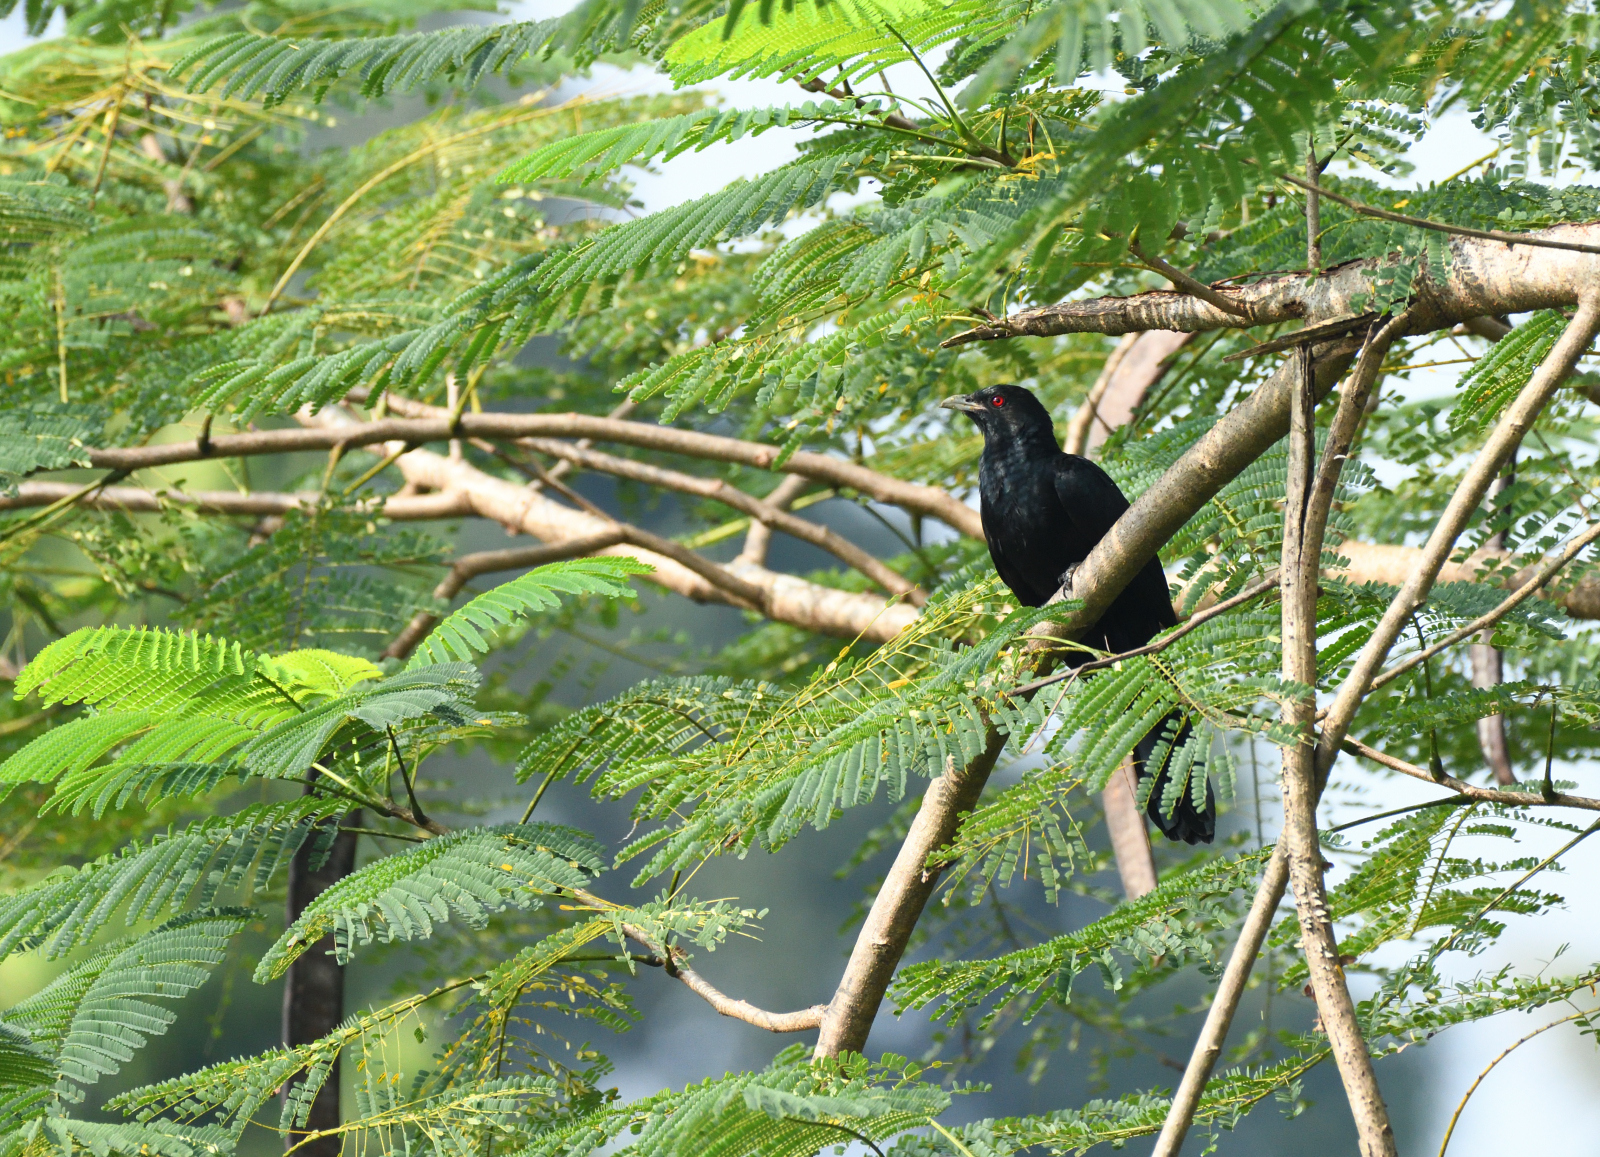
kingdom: Animalia
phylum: Chordata
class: Aves
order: Cuculiformes
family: Cuculidae
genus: Eudynamys
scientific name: Eudynamys scolopaceus
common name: Asian koel
